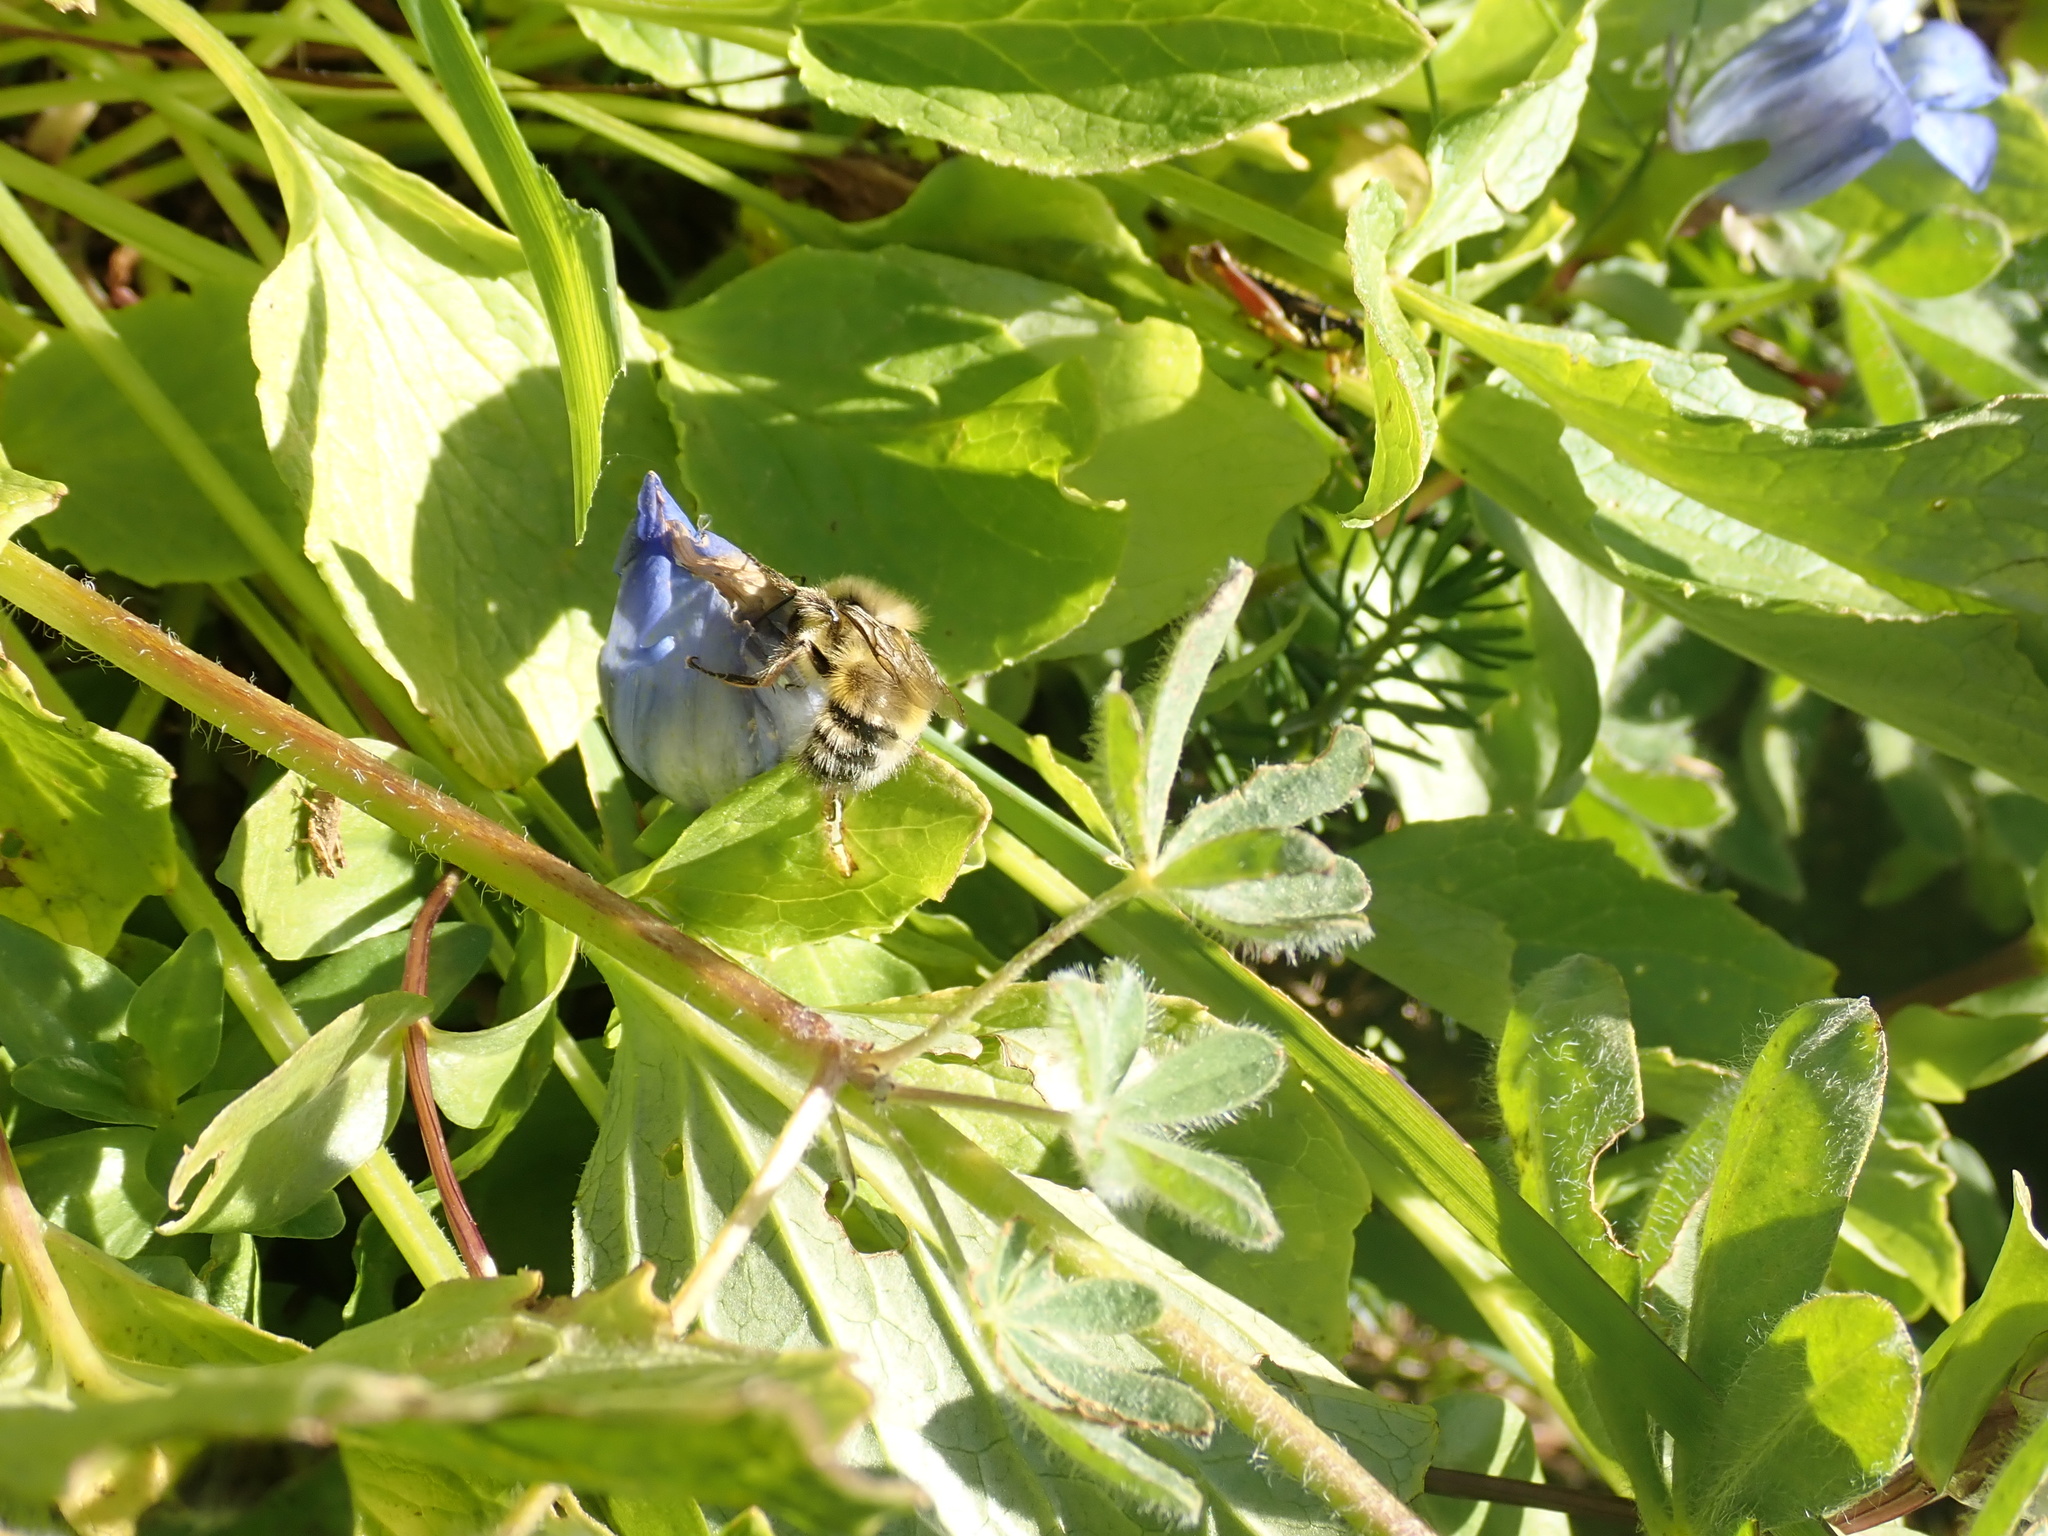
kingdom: Plantae
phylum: Tracheophyta
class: Magnoliopsida
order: Gentianales
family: Gentianaceae
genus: Gentiana
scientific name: Gentiana calycosa
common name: Rainier pleated gentian
